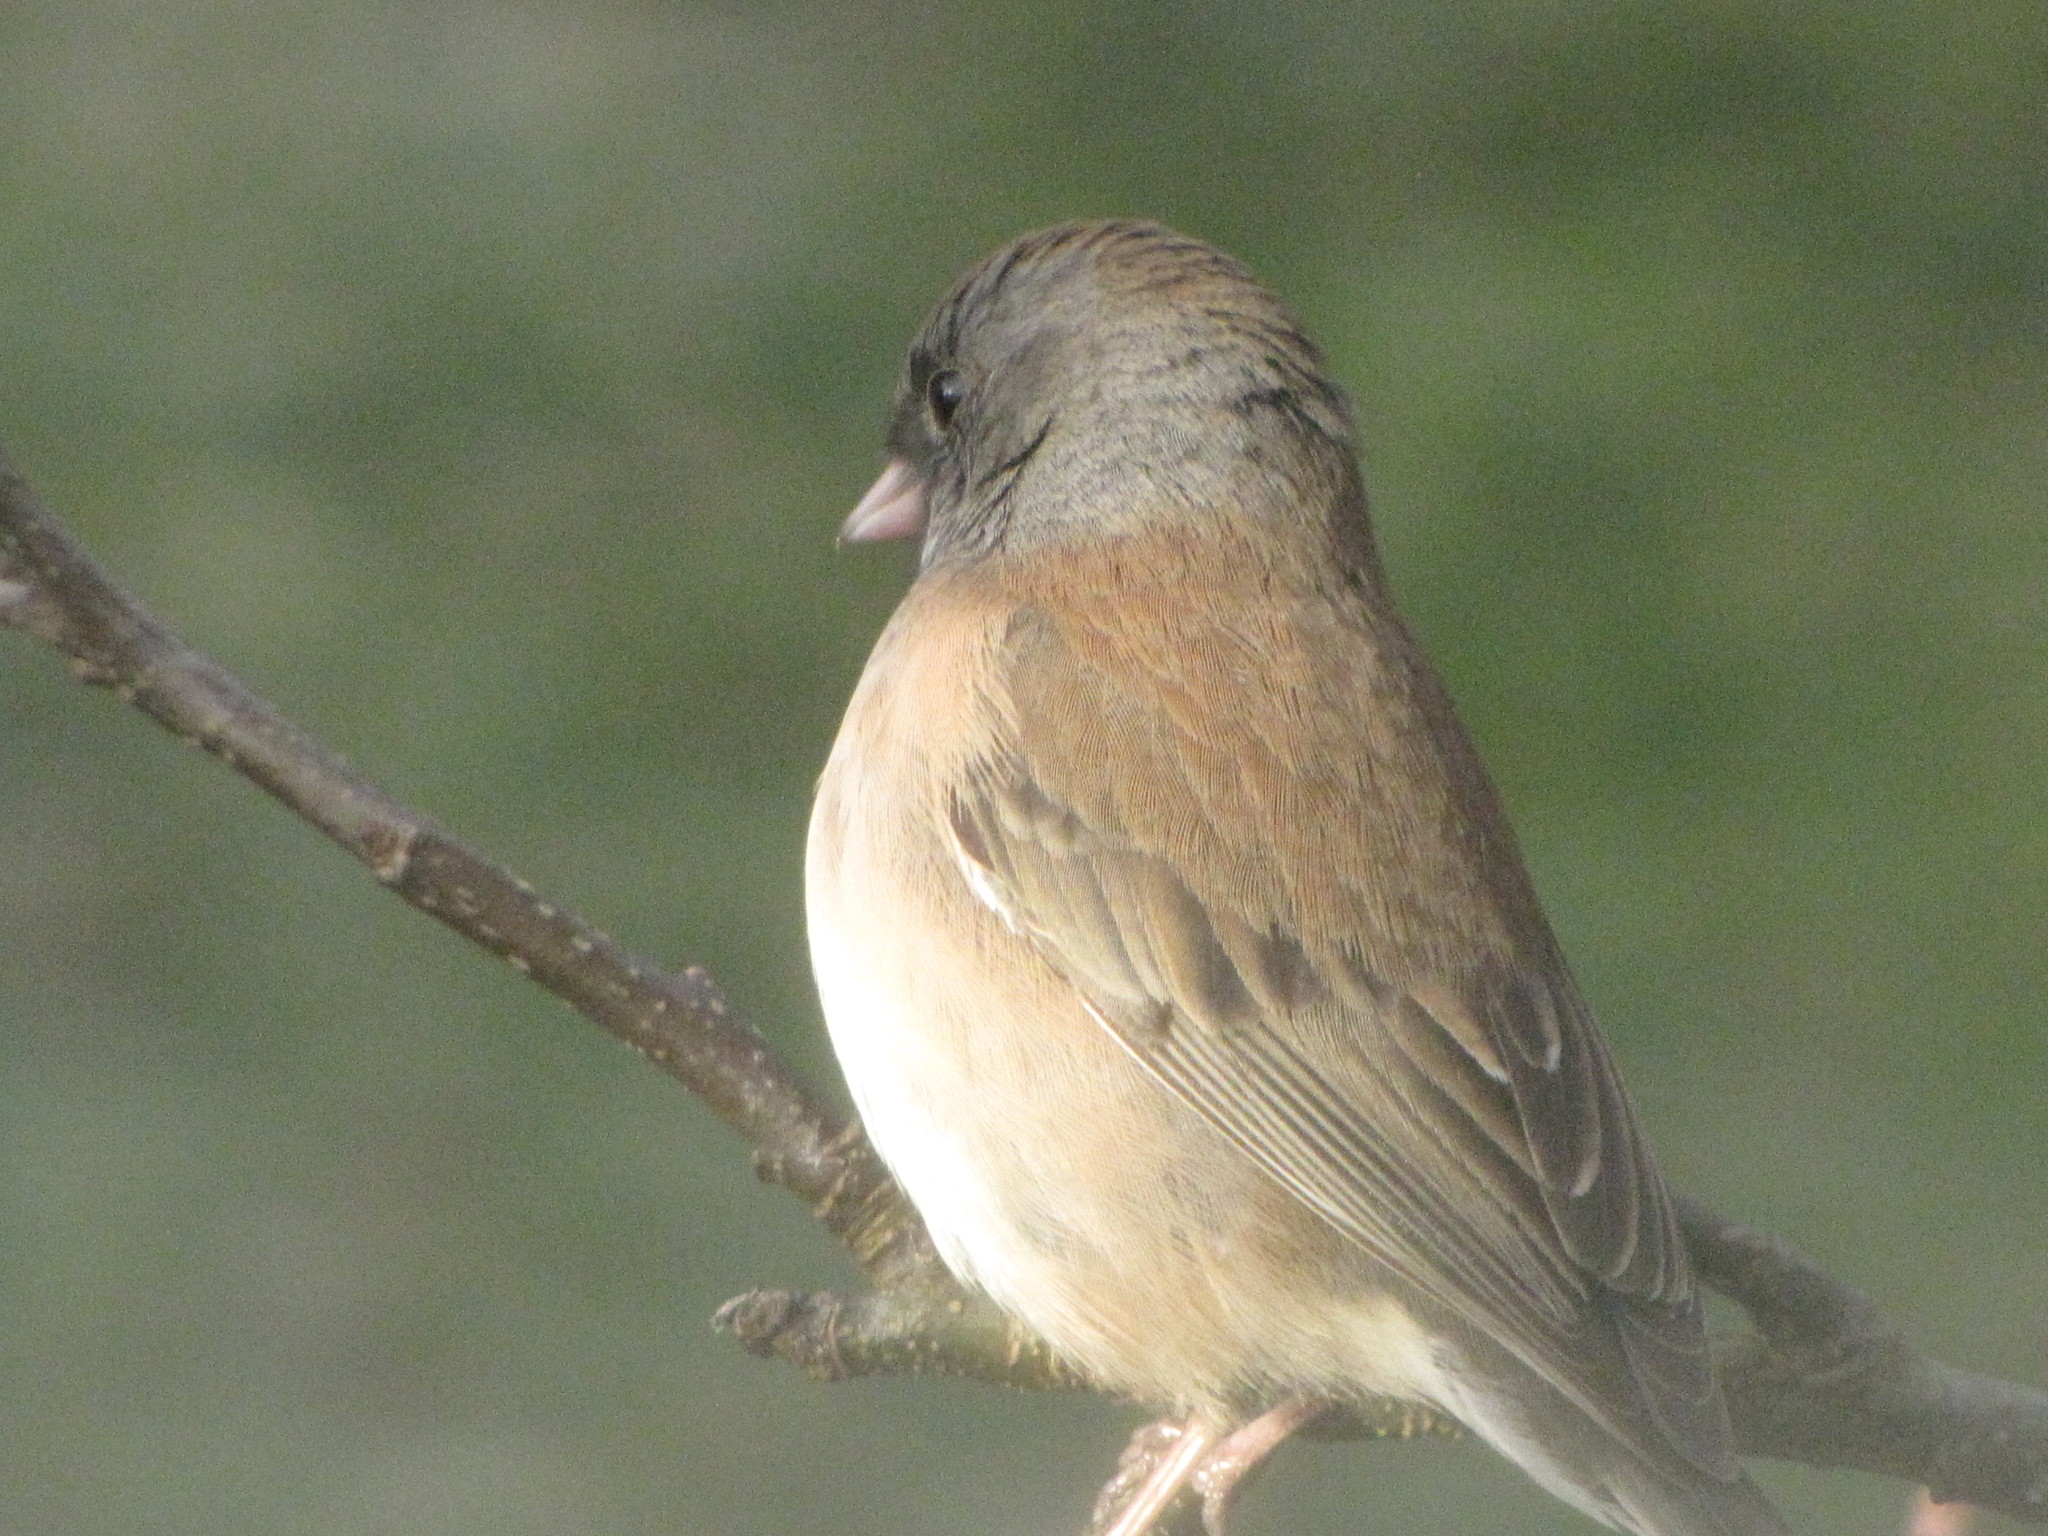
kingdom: Animalia
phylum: Chordata
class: Aves
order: Passeriformes
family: Passerellidae
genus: Junco
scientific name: Junco hyemalis
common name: Dark-eyed junco
